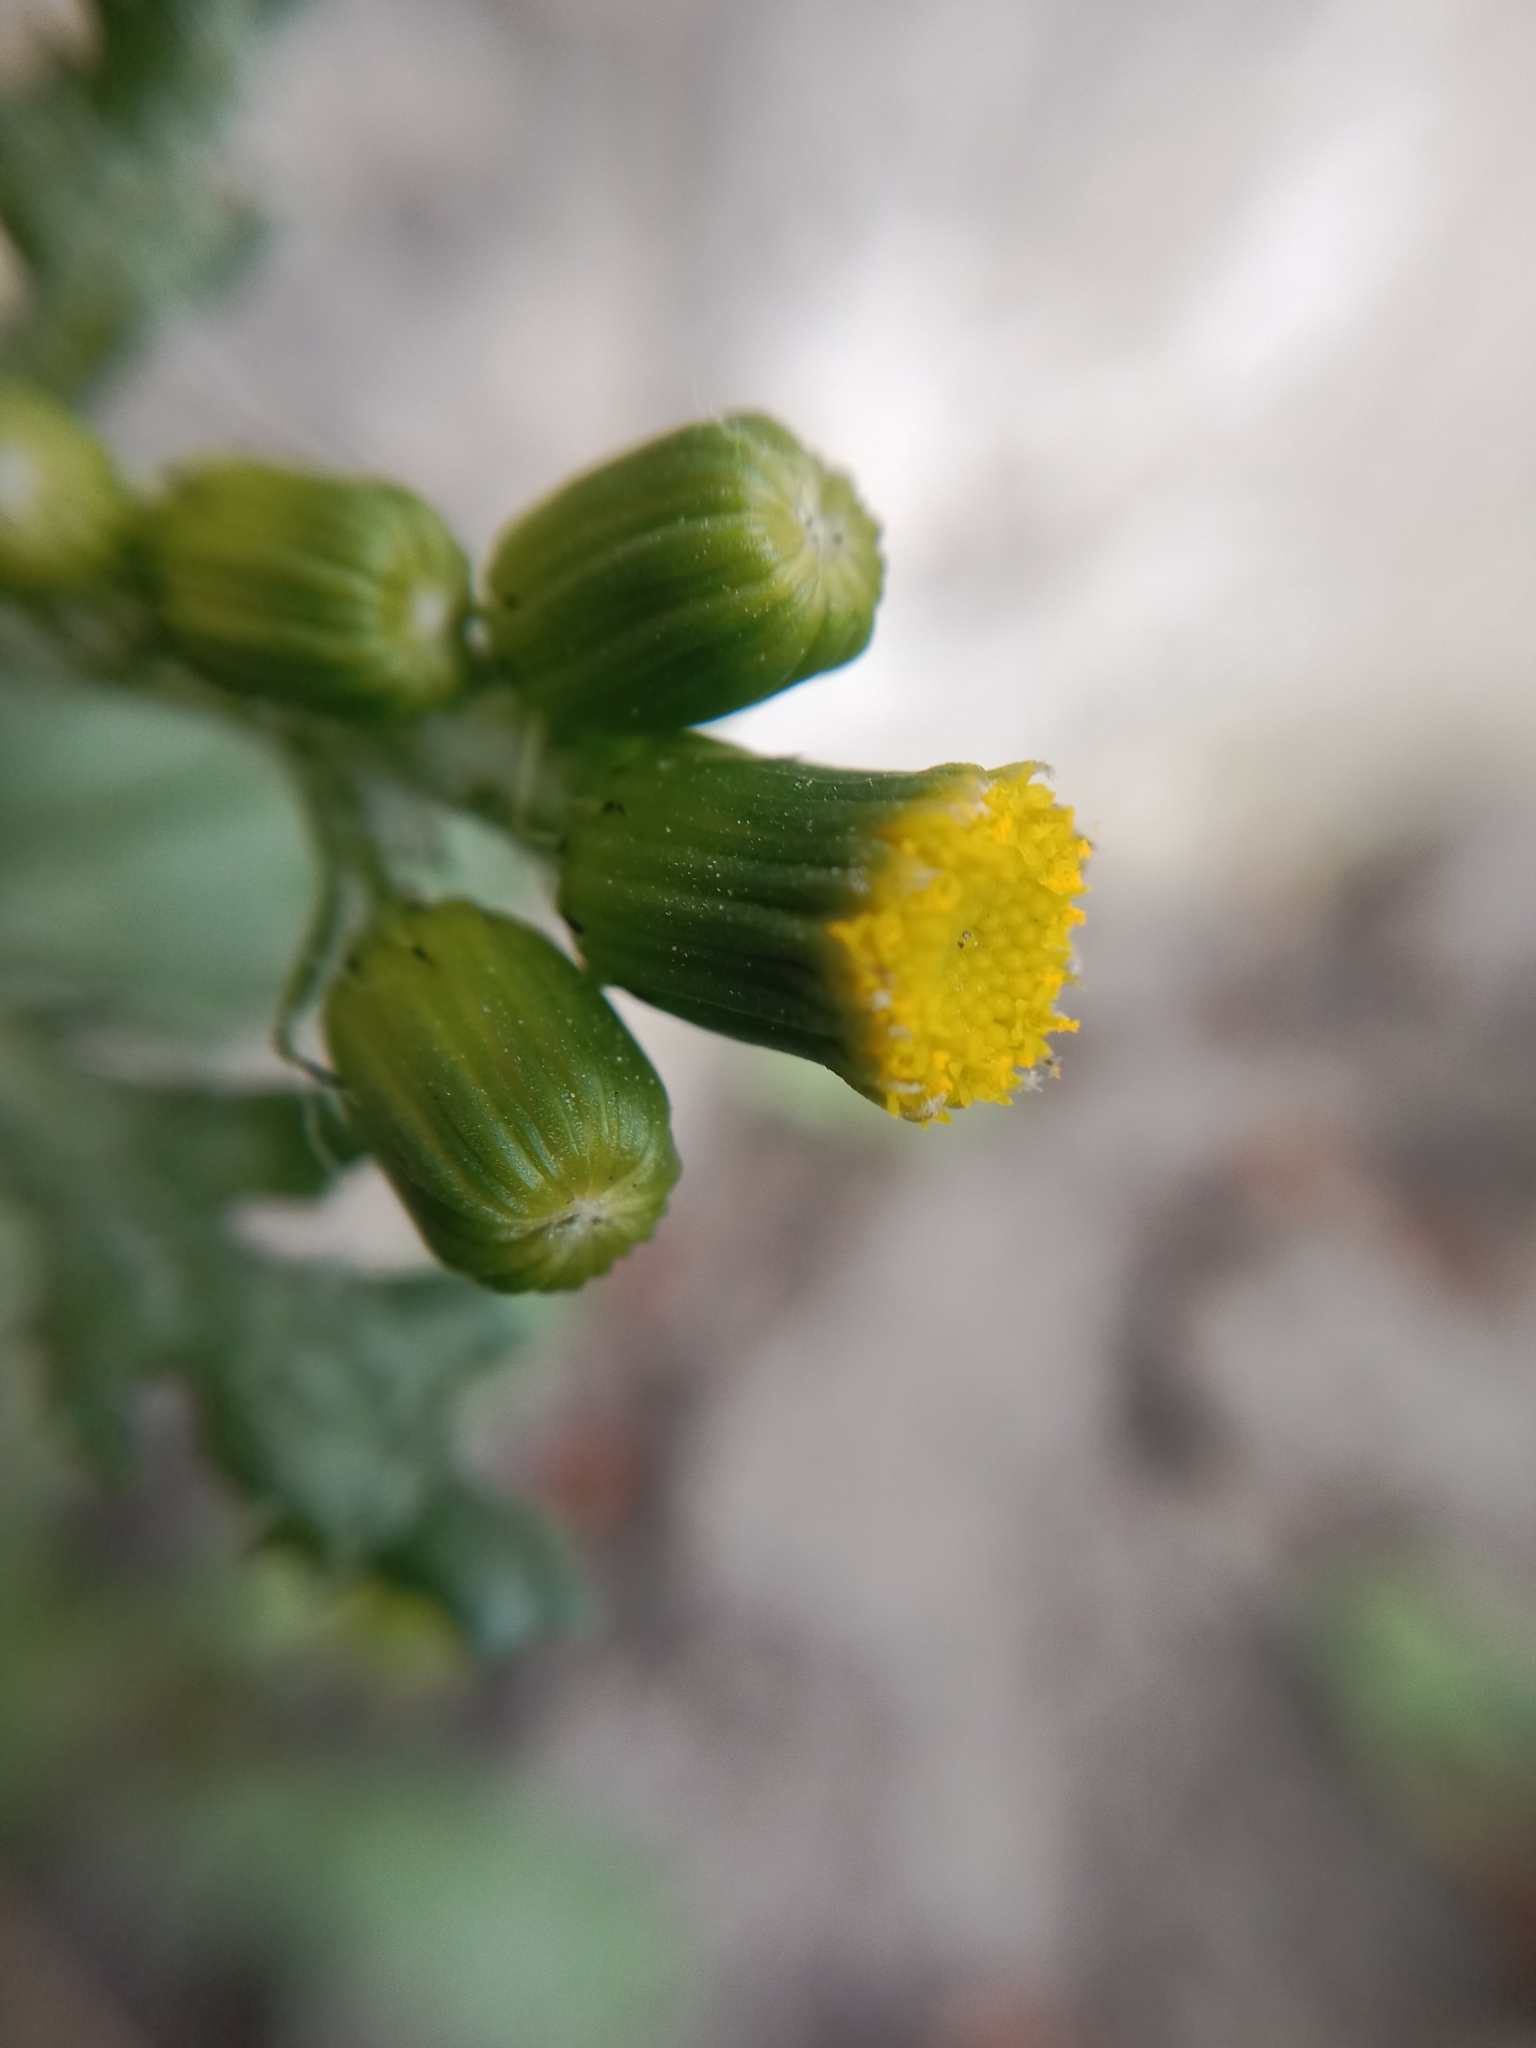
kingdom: Plantae
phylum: Tracheophyta
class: Magnoliopsida
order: Asterales
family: Asteraceae
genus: Senecio
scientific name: Senecio vulgaris
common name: Old-man-in-the-spring
